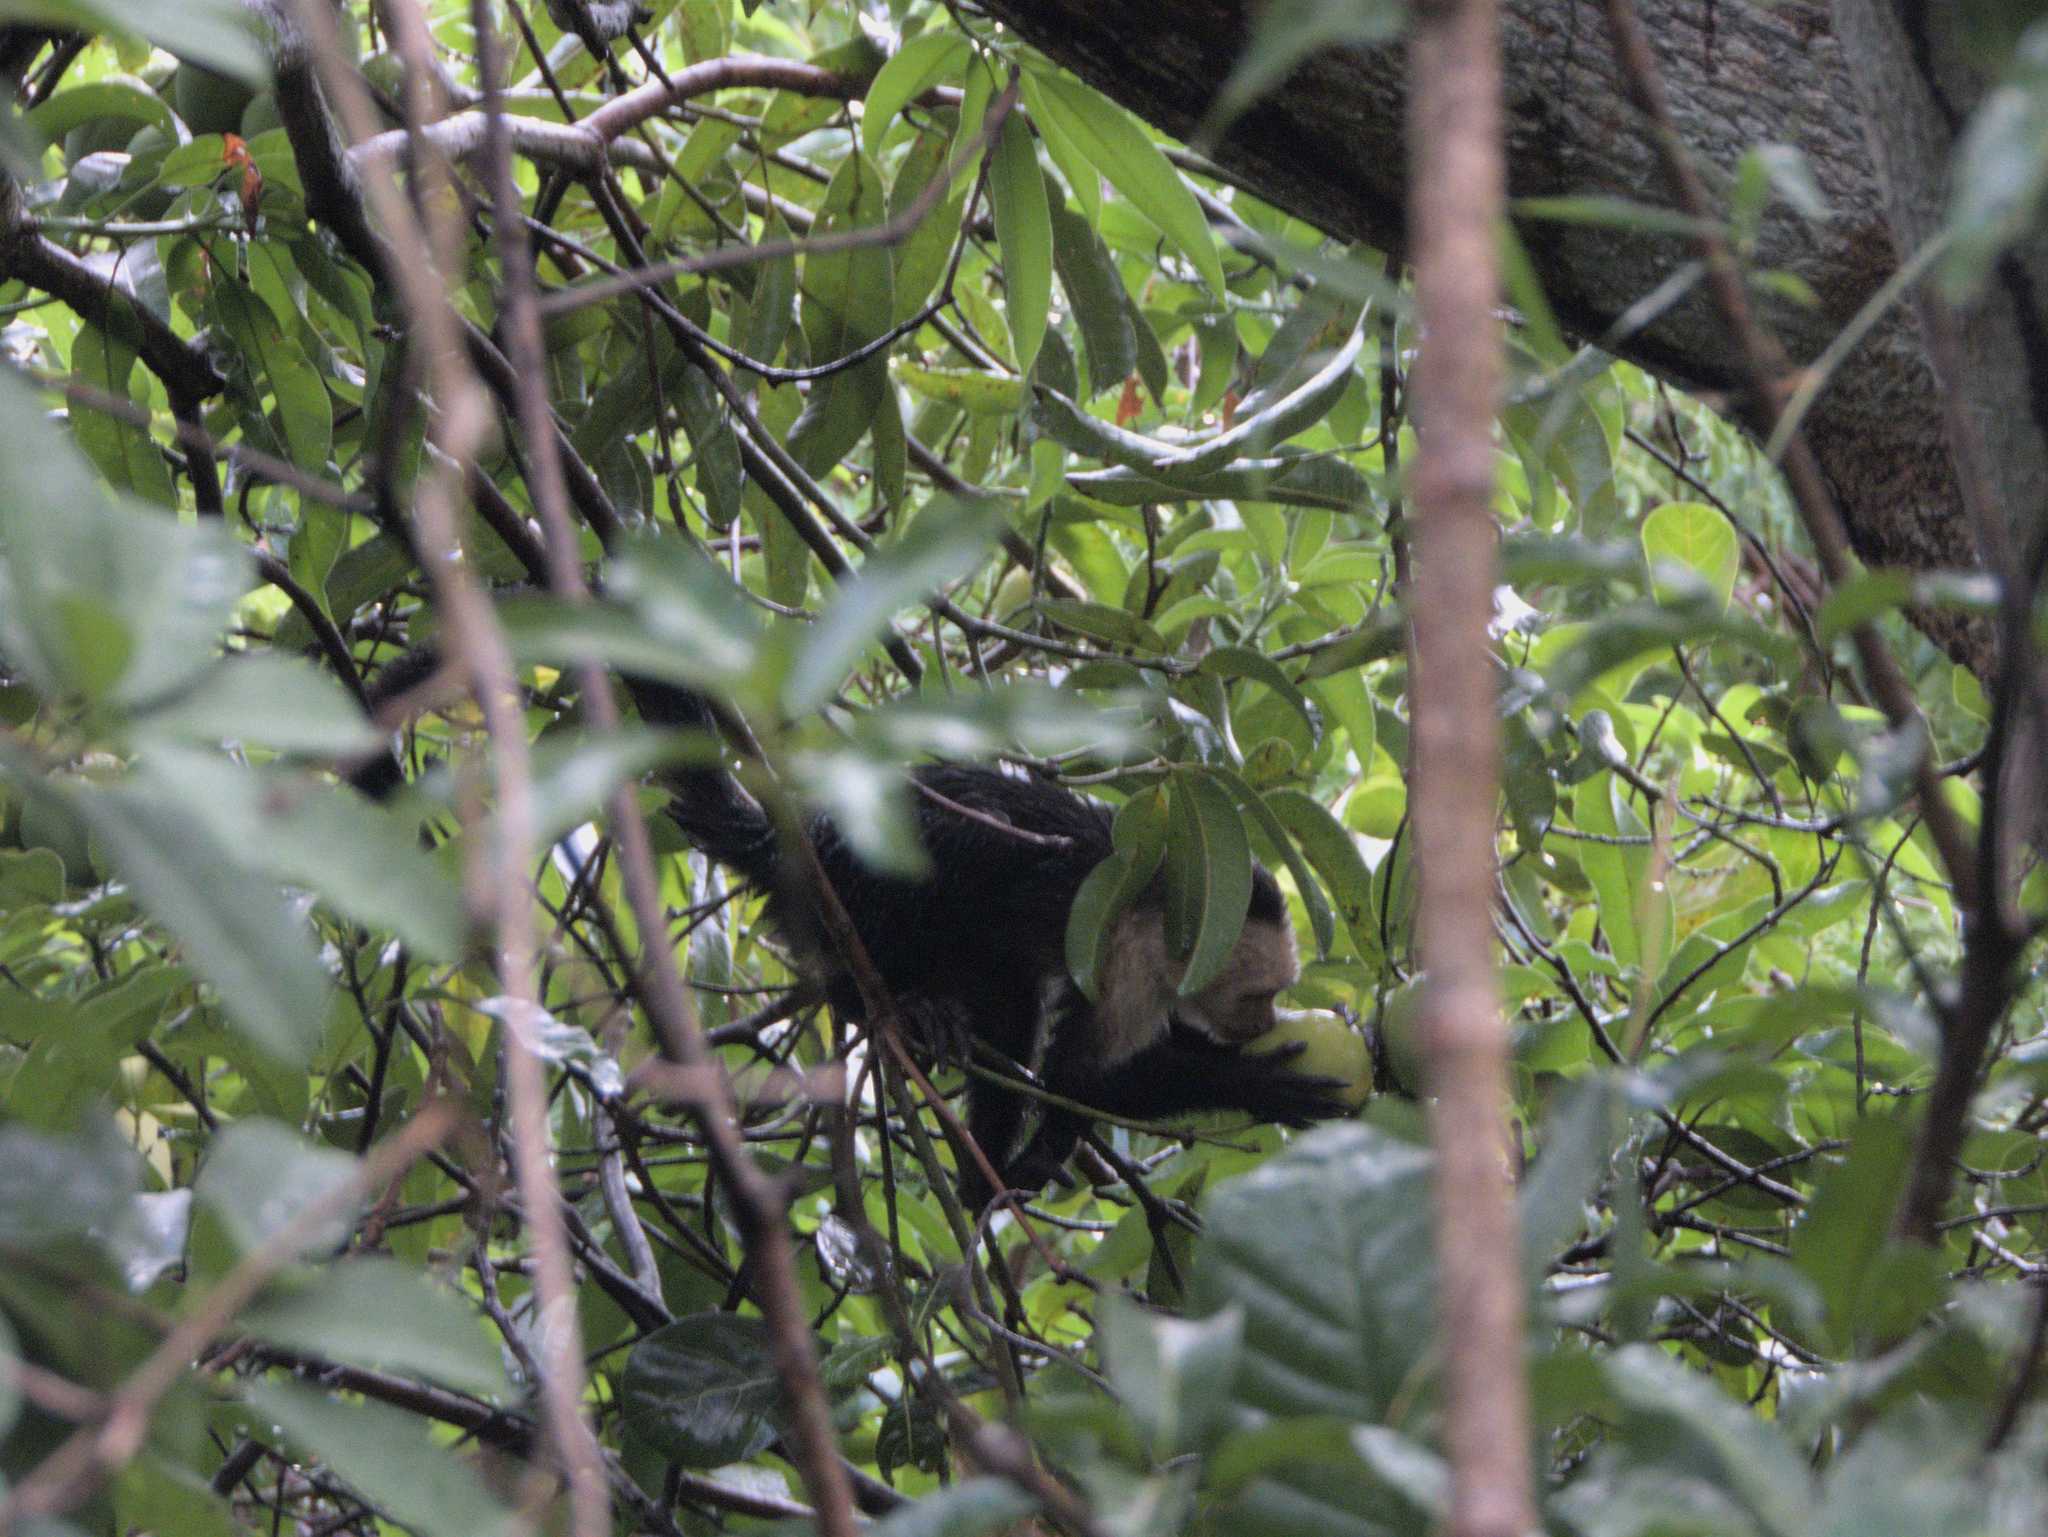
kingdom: Animalia
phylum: Chordata
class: Mammalia
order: Primates
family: Cebidae
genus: Cebus
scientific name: Cebus imitator
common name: Panamanian white-faced capuchin
